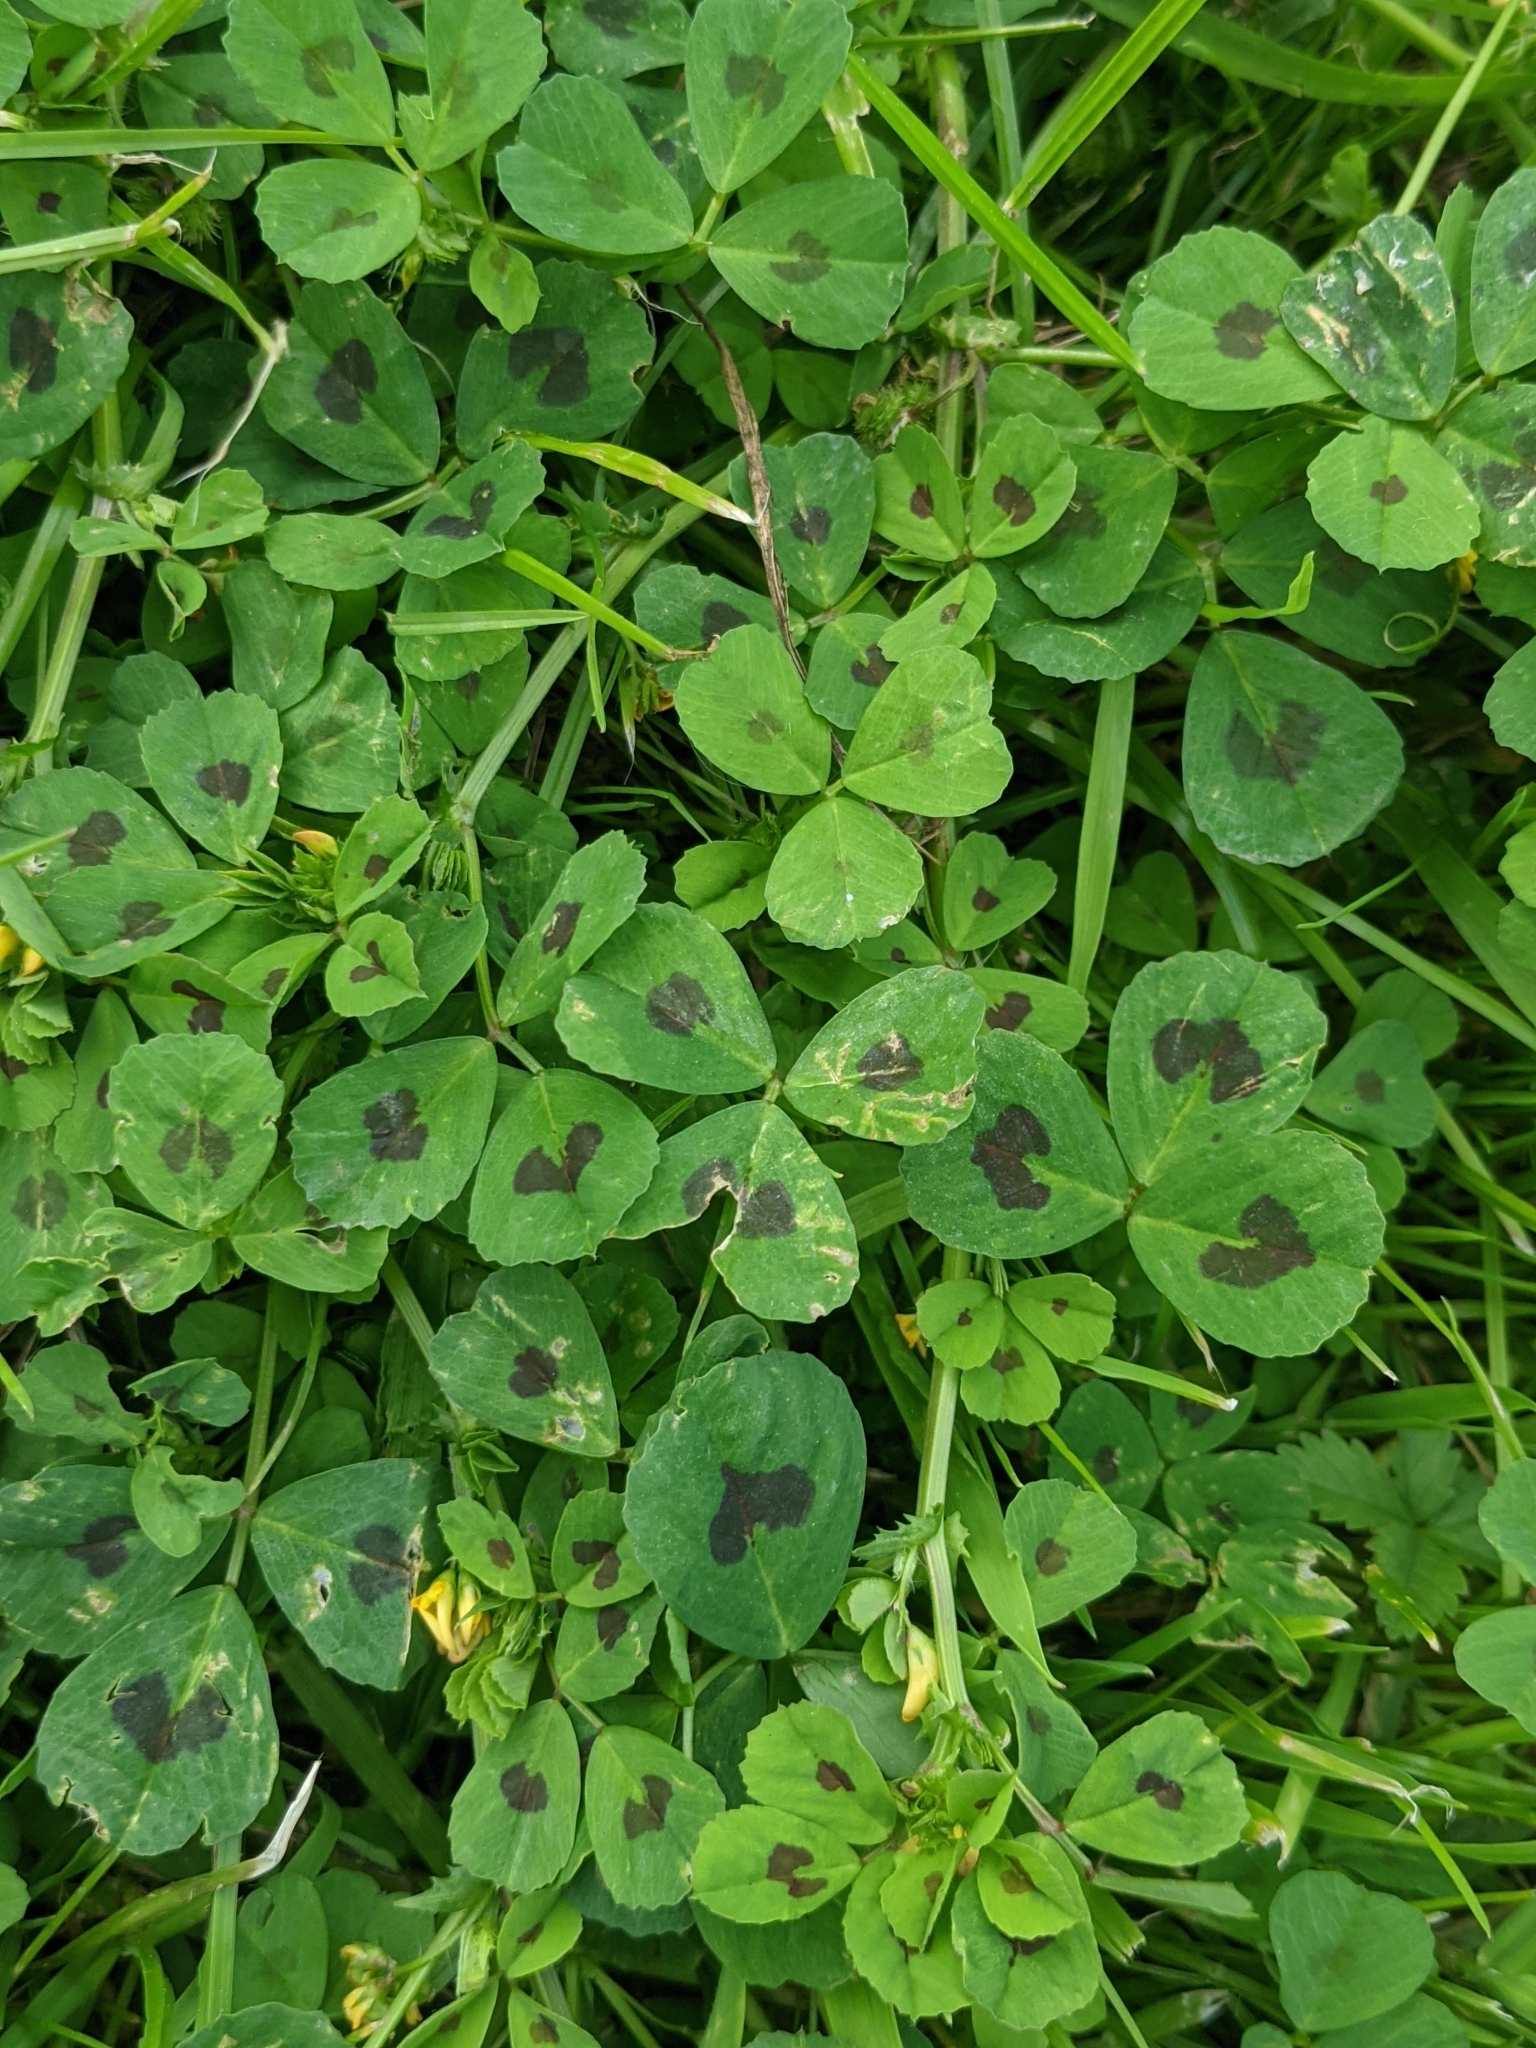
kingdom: Plantae
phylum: Tracheophyta
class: Magnoliopsida
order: Fabales
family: Fabaceae
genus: Medicago
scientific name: Medicago arabica
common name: Spotted medick
